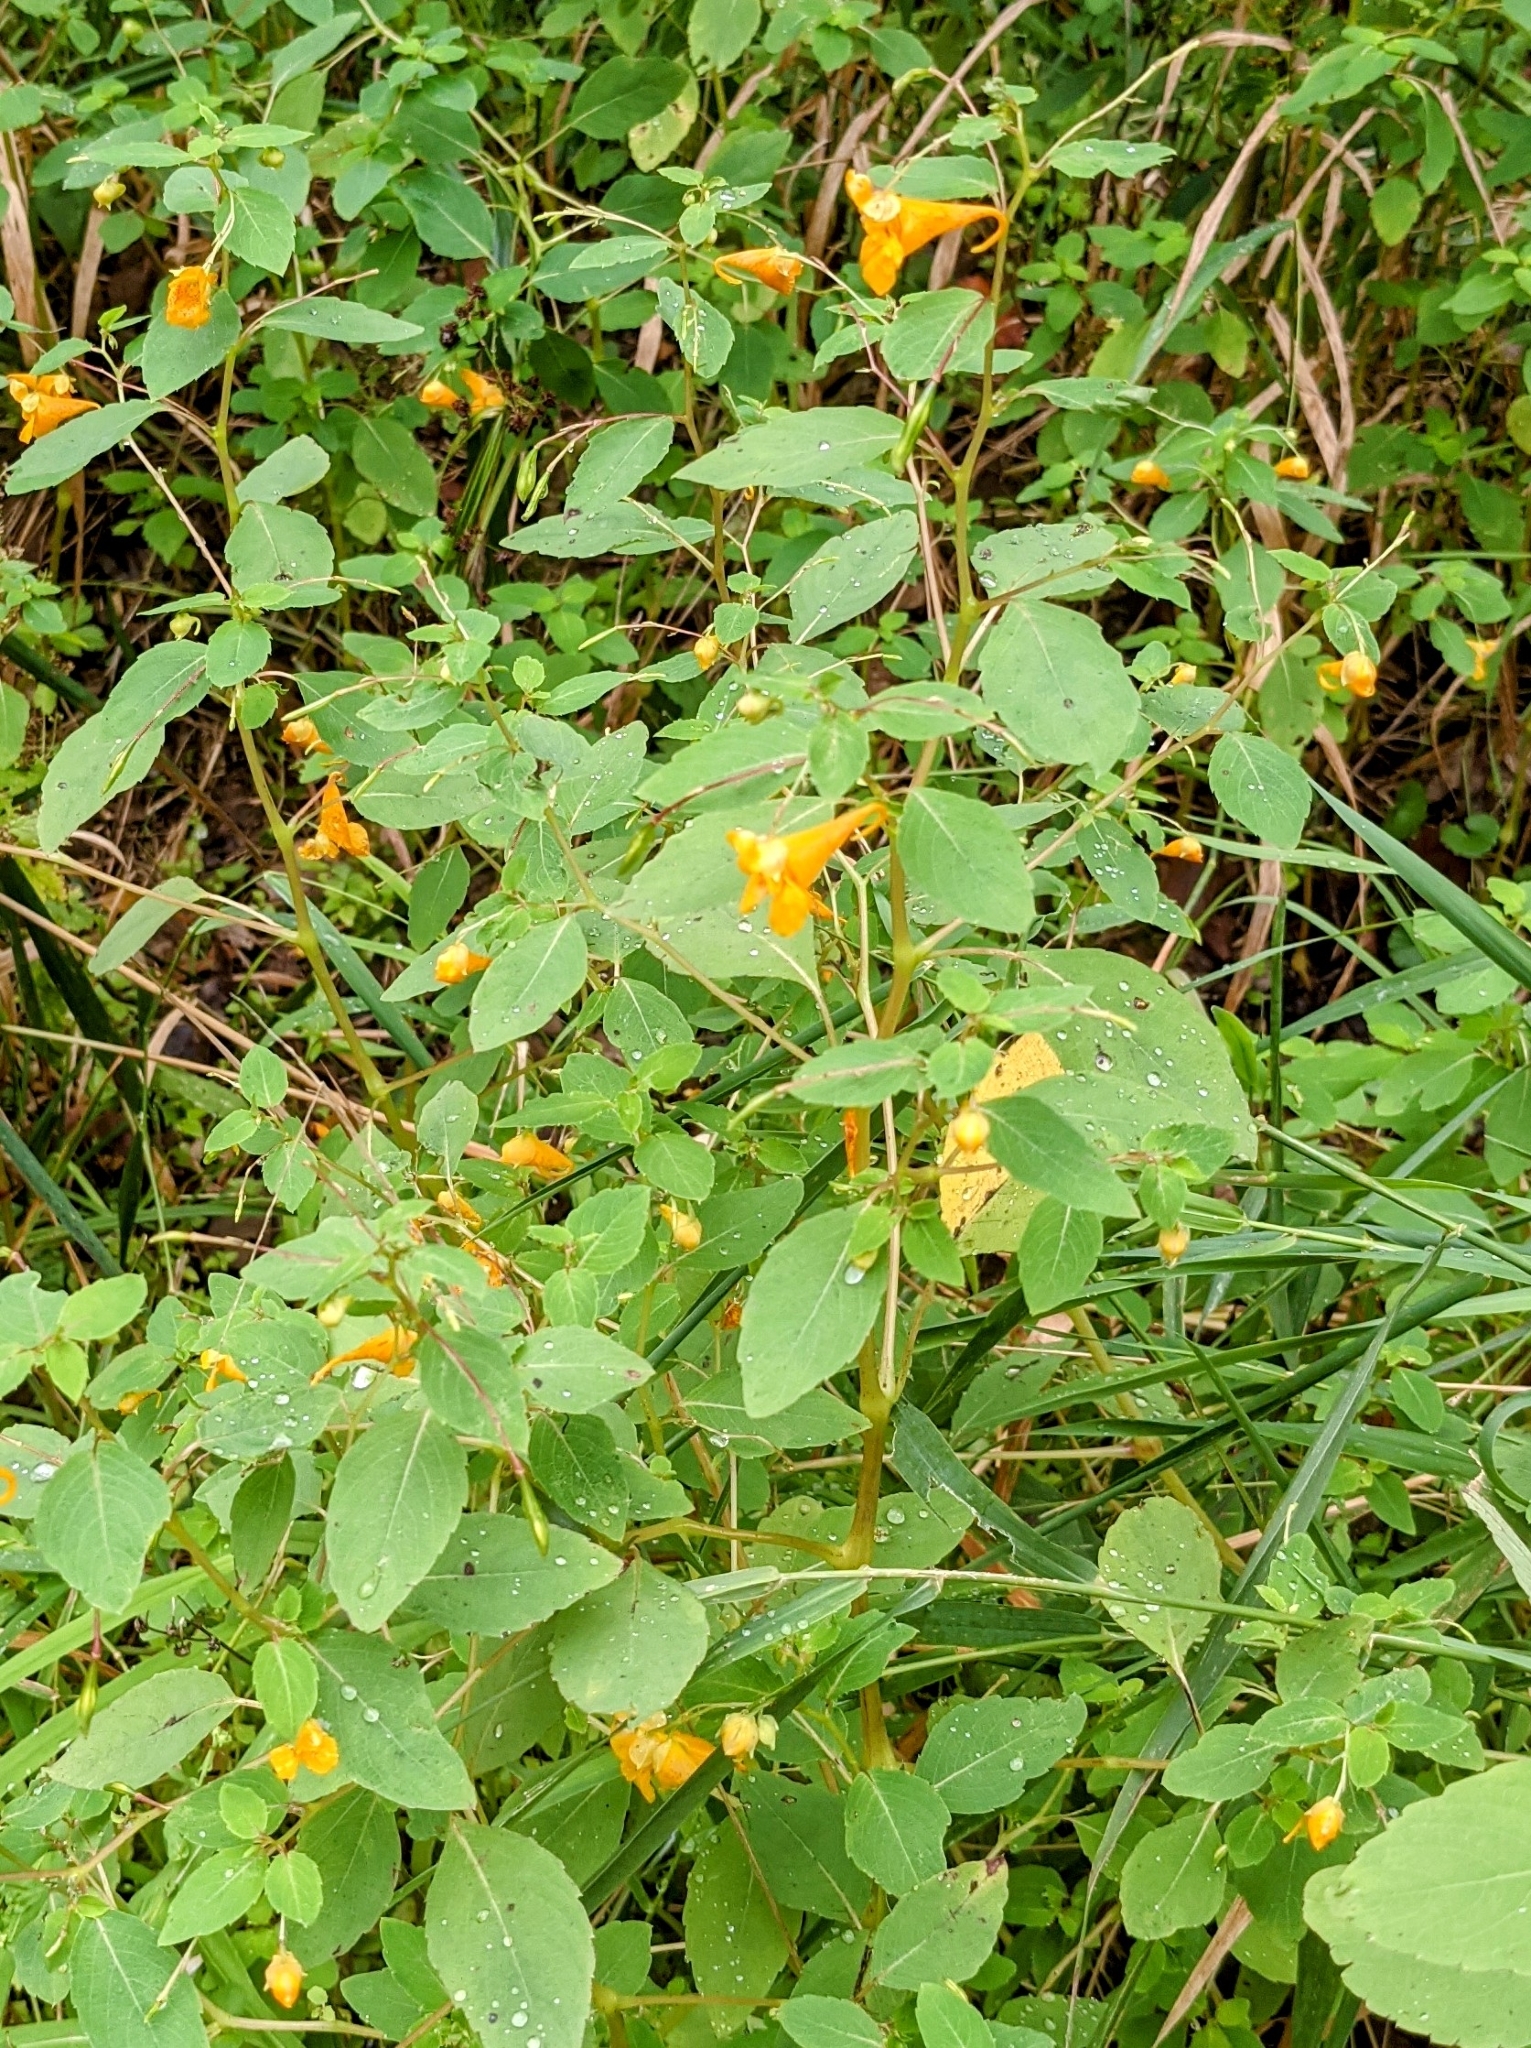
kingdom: Plantae
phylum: Tracheophyta
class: Magnoliopsida
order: Ericales
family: Balsaminaceae
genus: Impatiens
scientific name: Impatiens capensis
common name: Orange balsam
